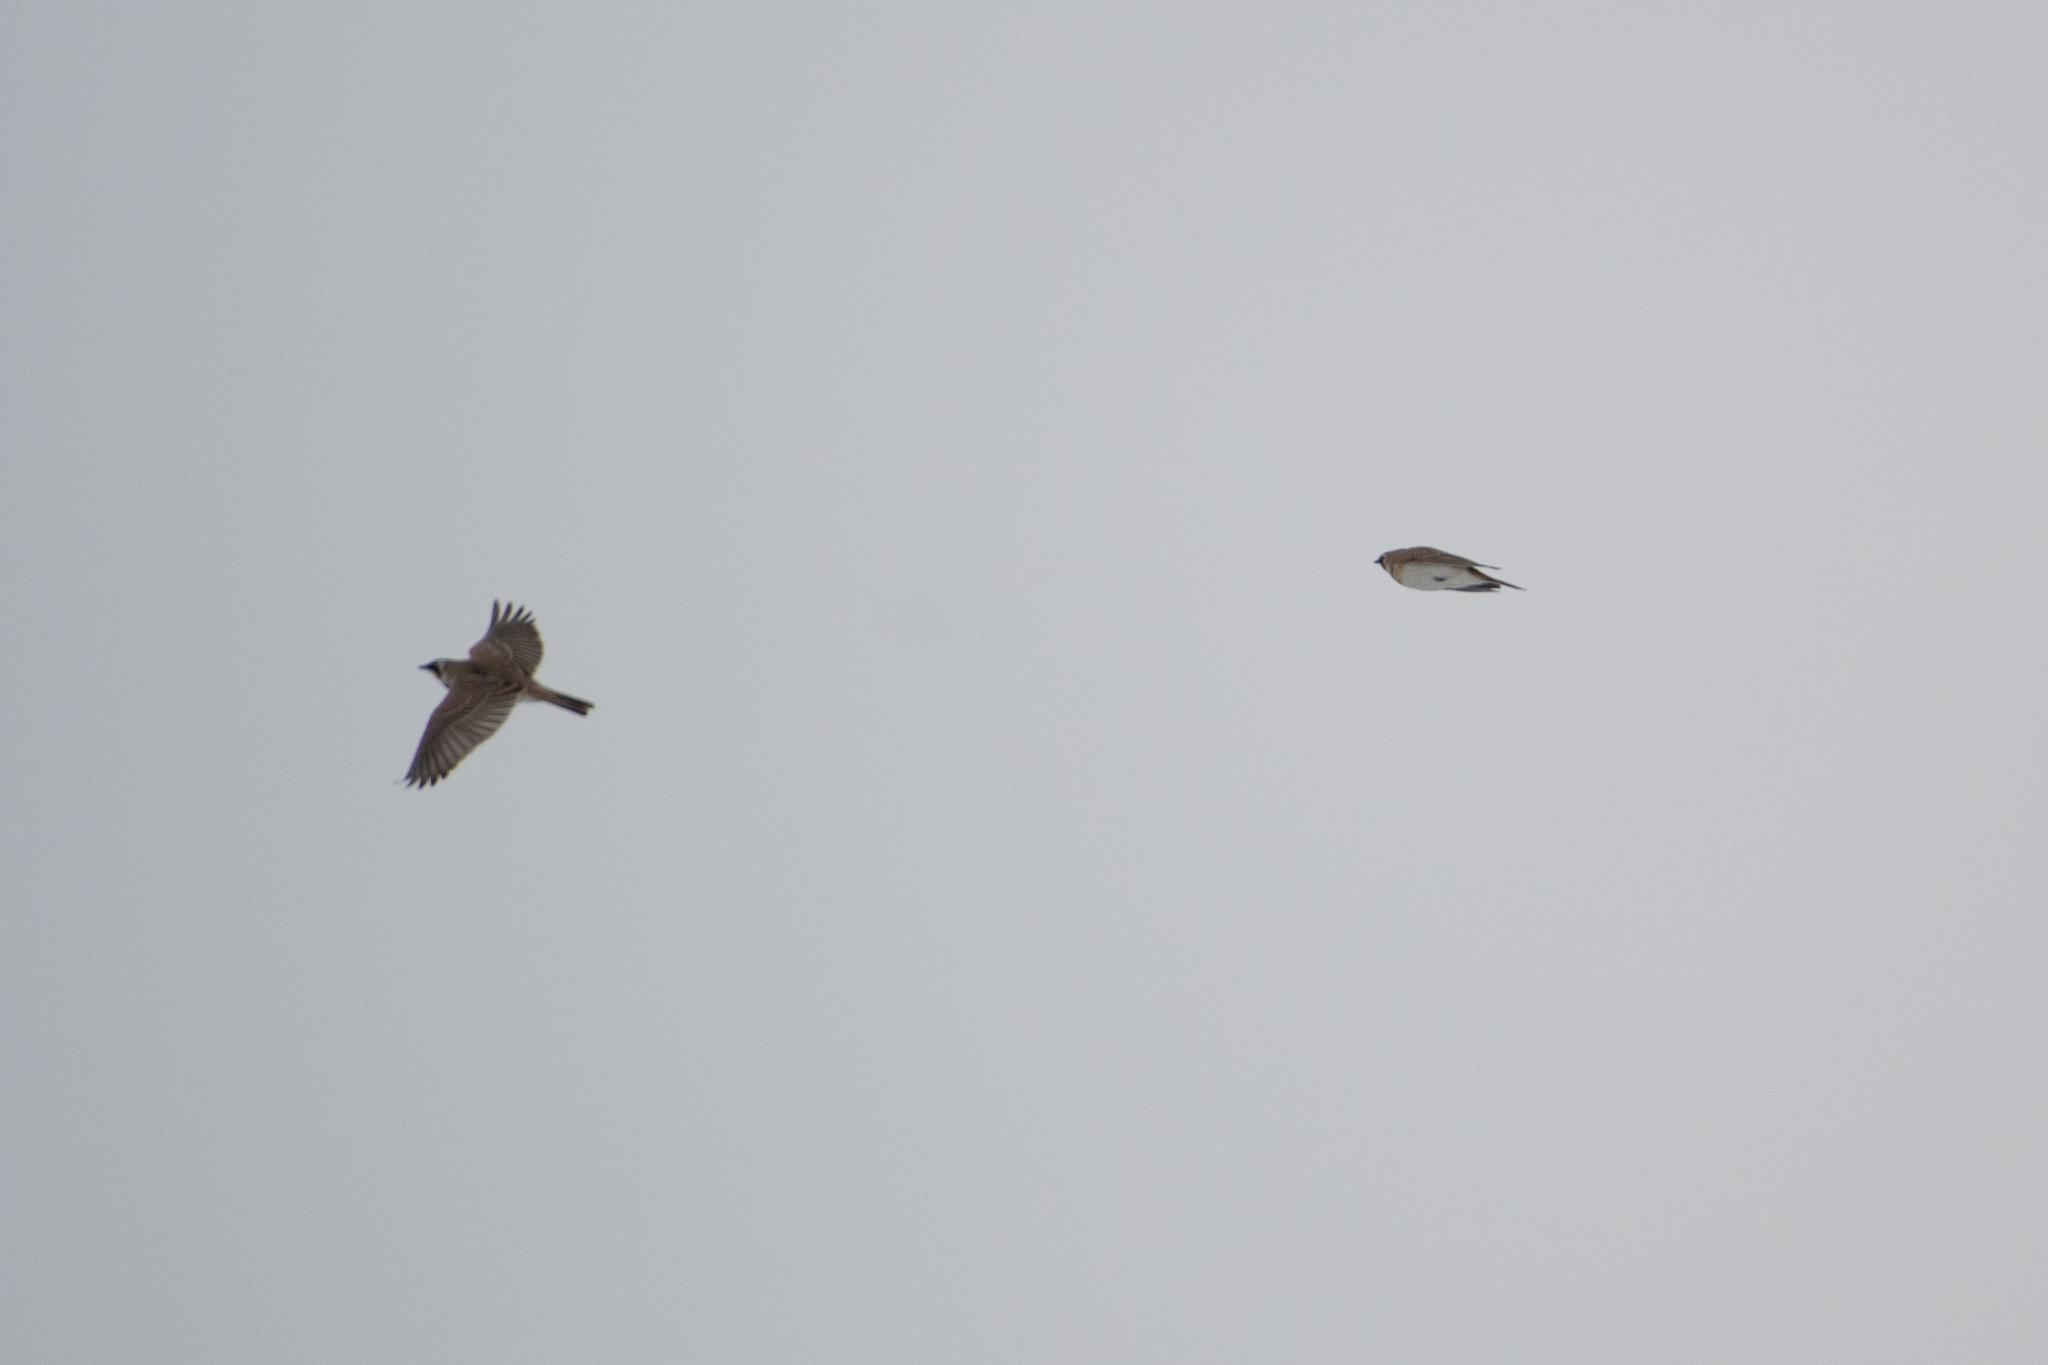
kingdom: Animalia
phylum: Chordata
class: Aves
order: Passeriformes
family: Alaudidae
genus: Eremophila
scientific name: Eremophila alpestris
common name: Horned lark
